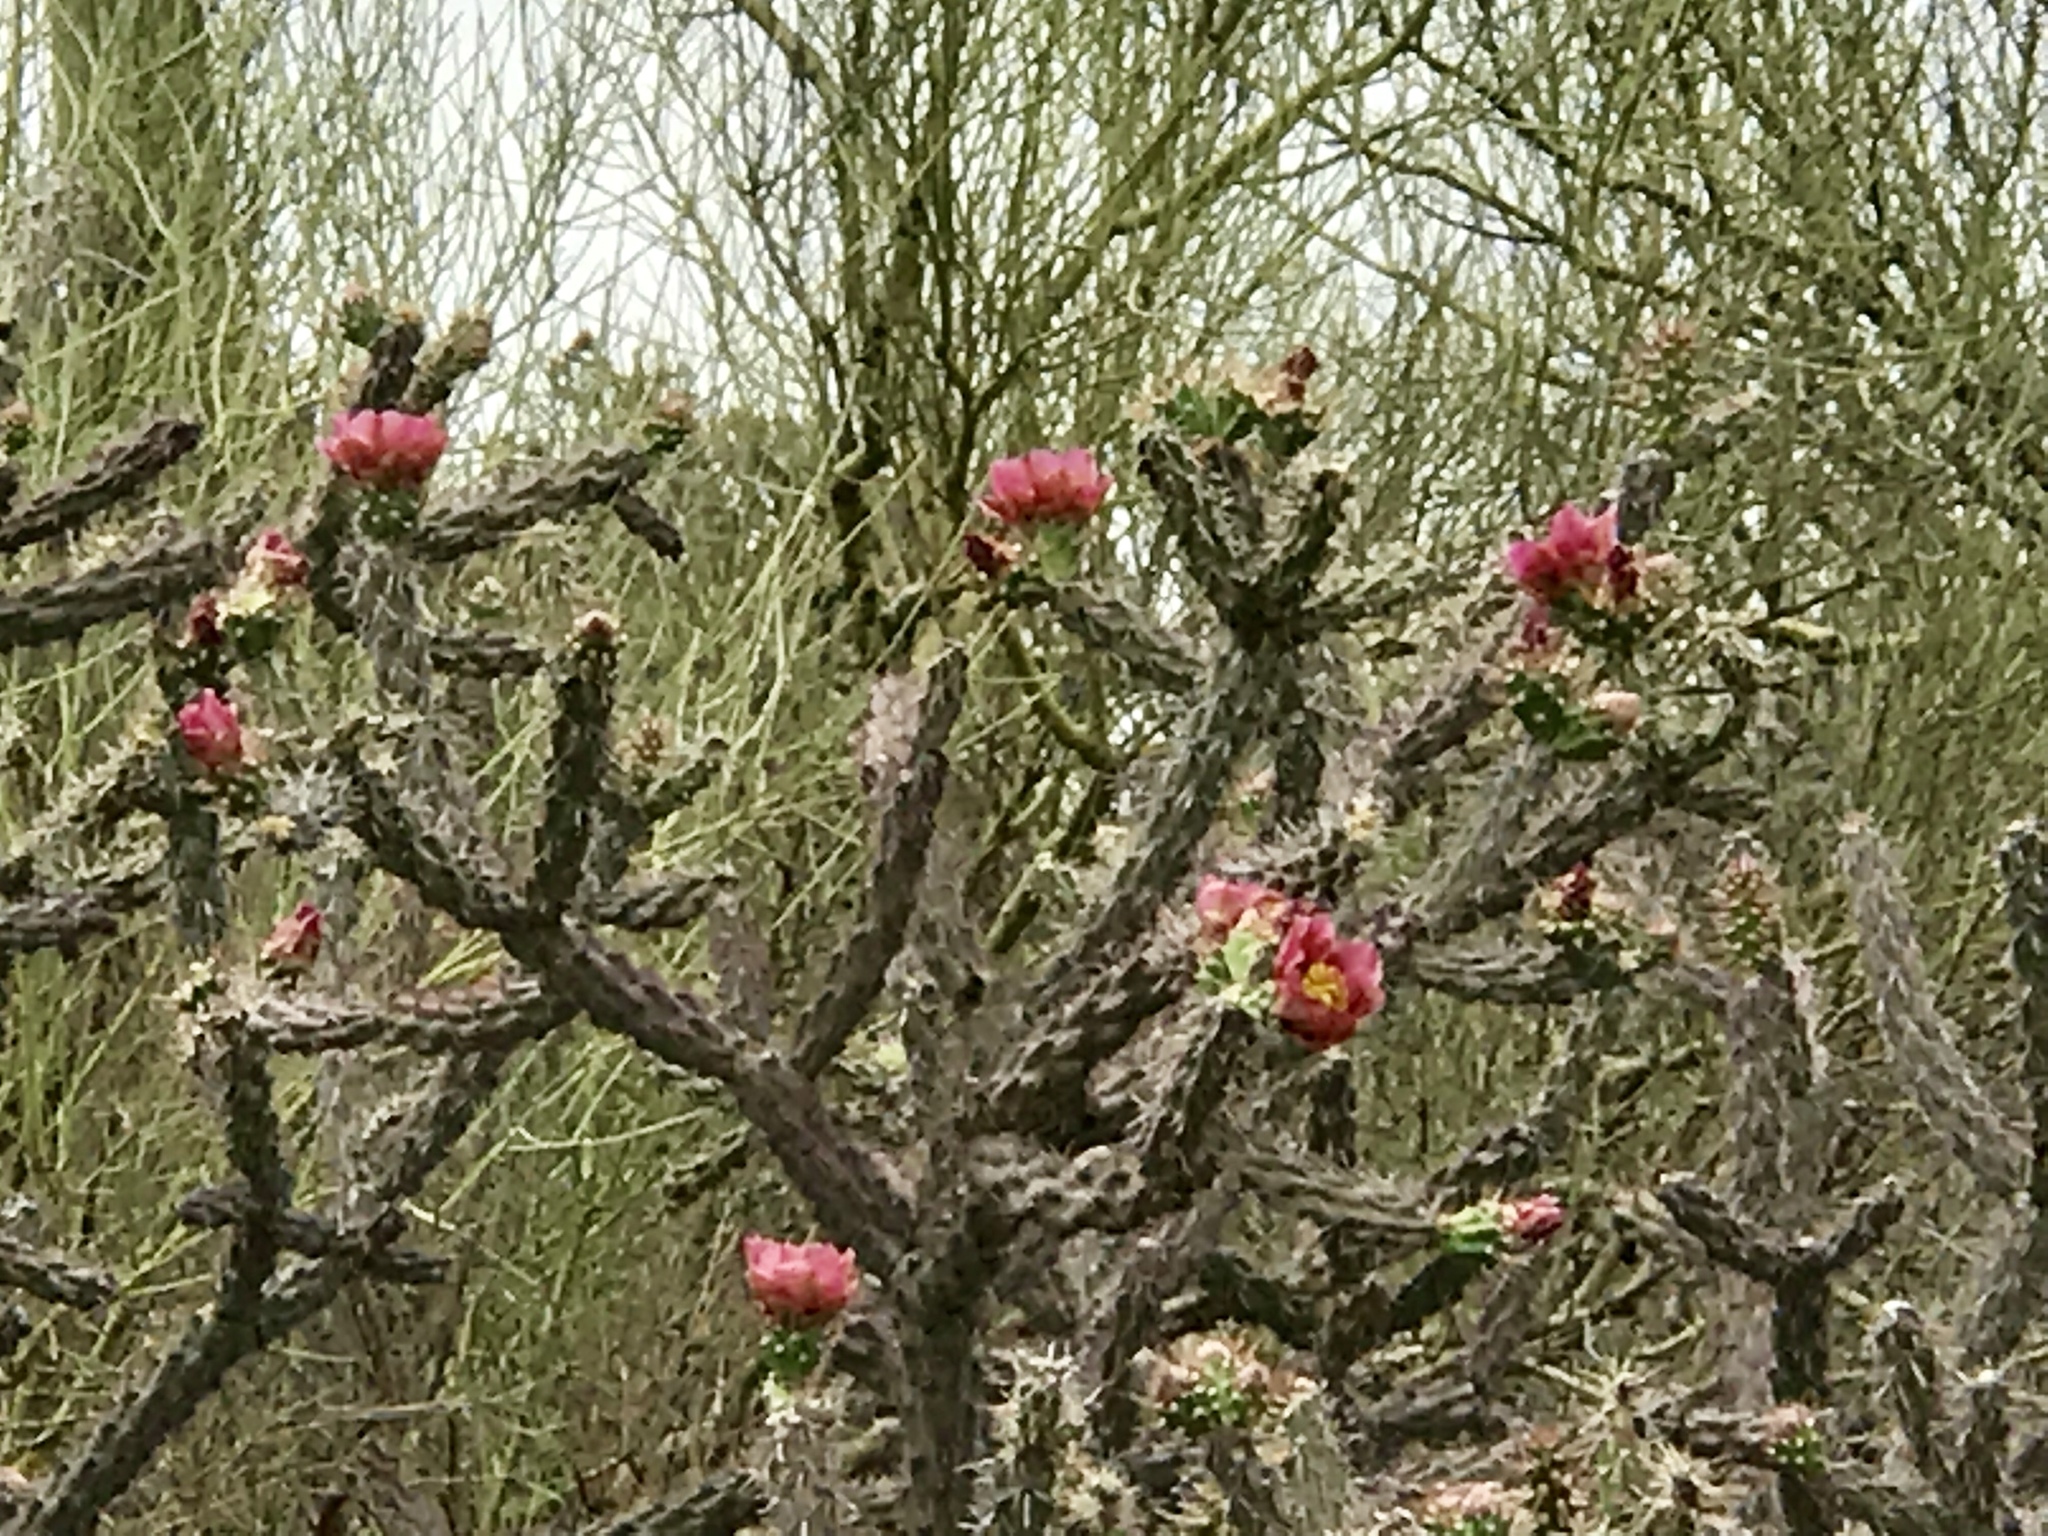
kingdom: Plantae
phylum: Tracheophyta
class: Magnoliopsida
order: Caryophyllales
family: Cactaceae
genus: Cylindropuntia
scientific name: Cylindropuntia thurberi
